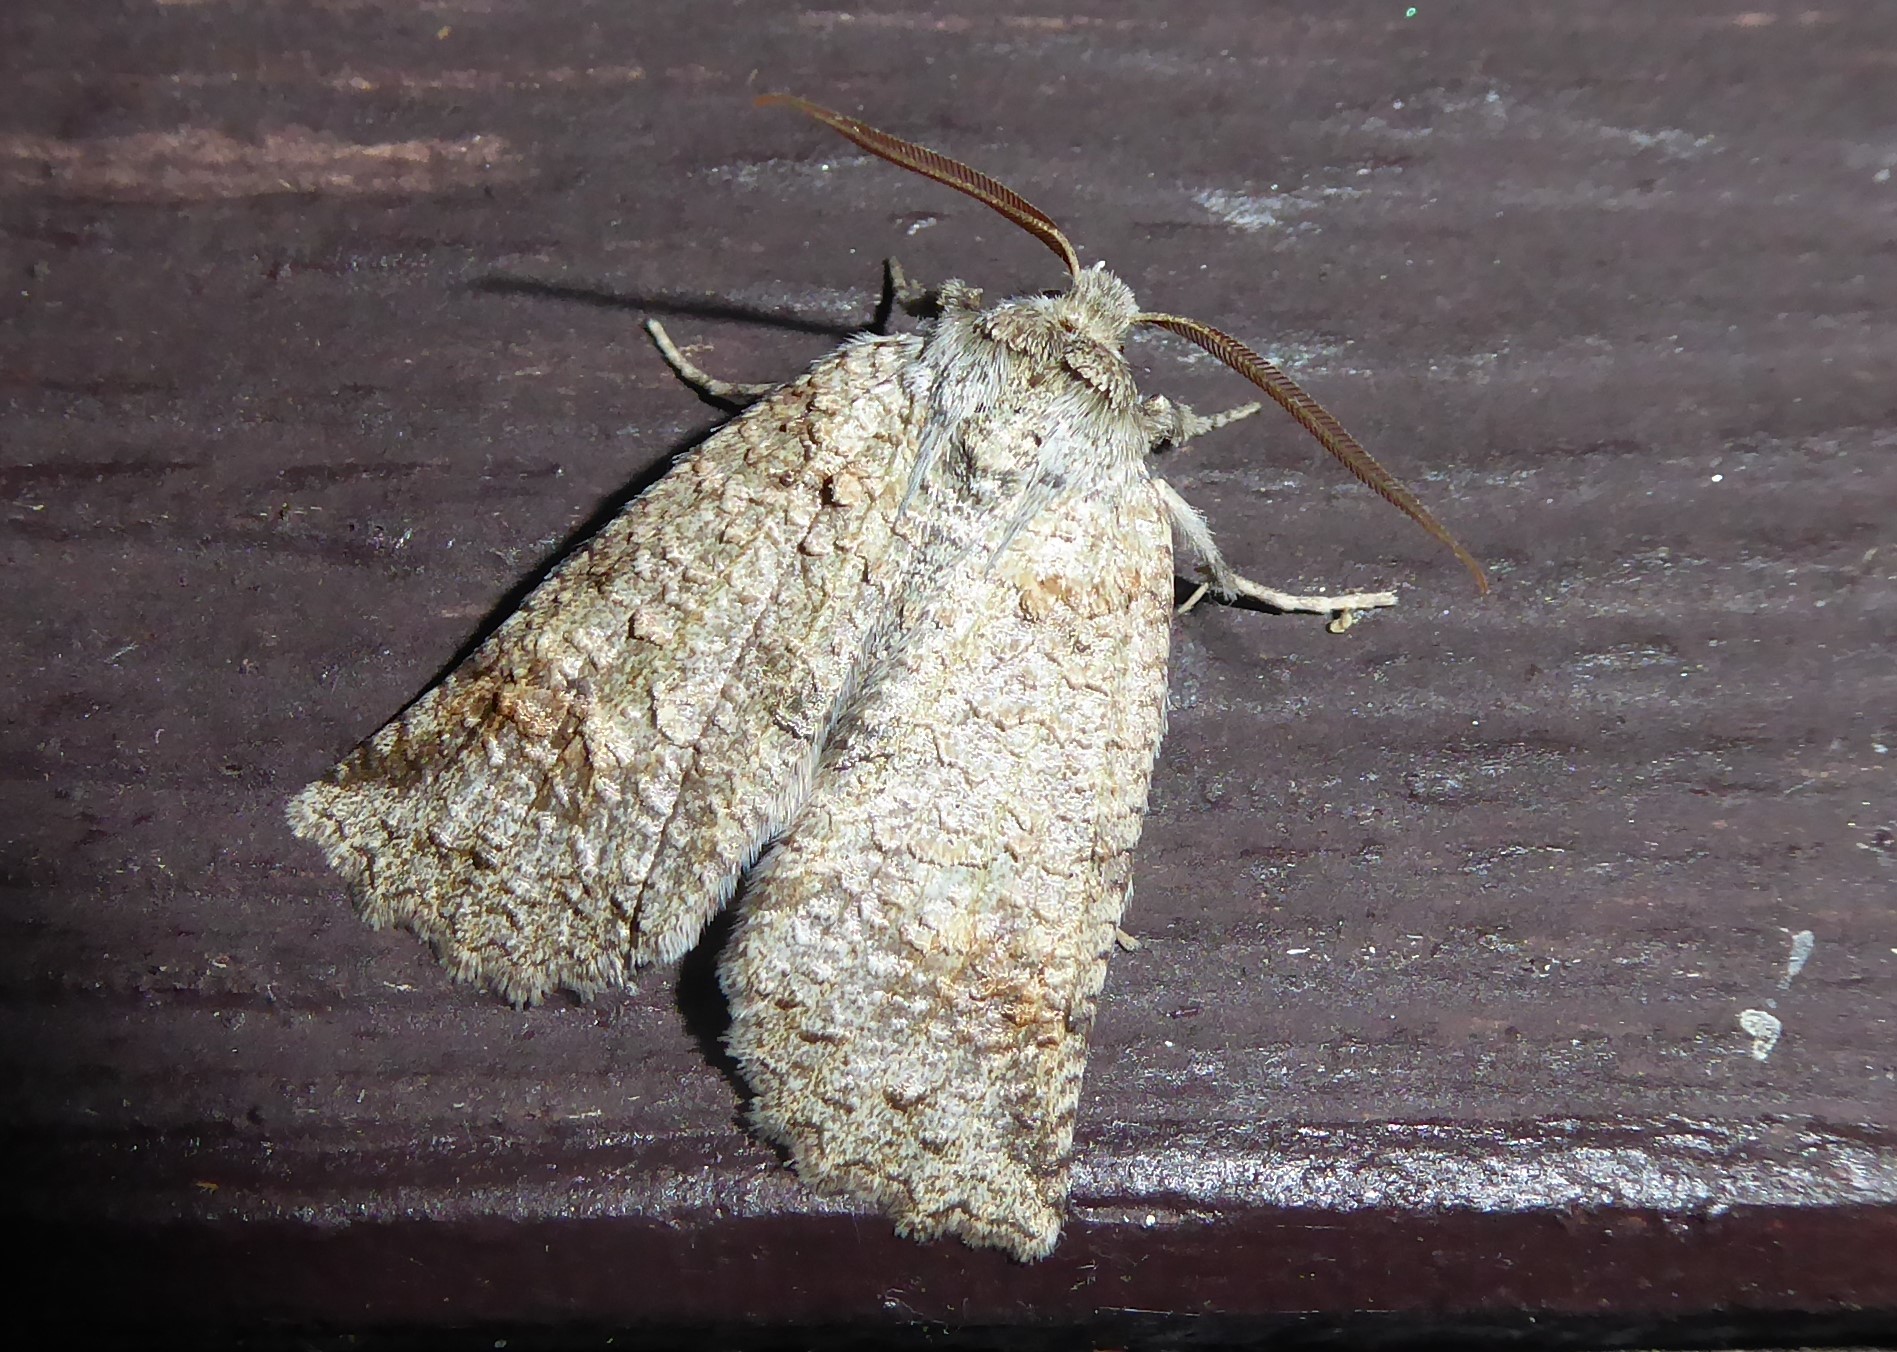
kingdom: Animalia
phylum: Arthropoda
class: Insecta
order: Lepidoptera
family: Geometridae
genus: Declana
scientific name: Declana floccosa
